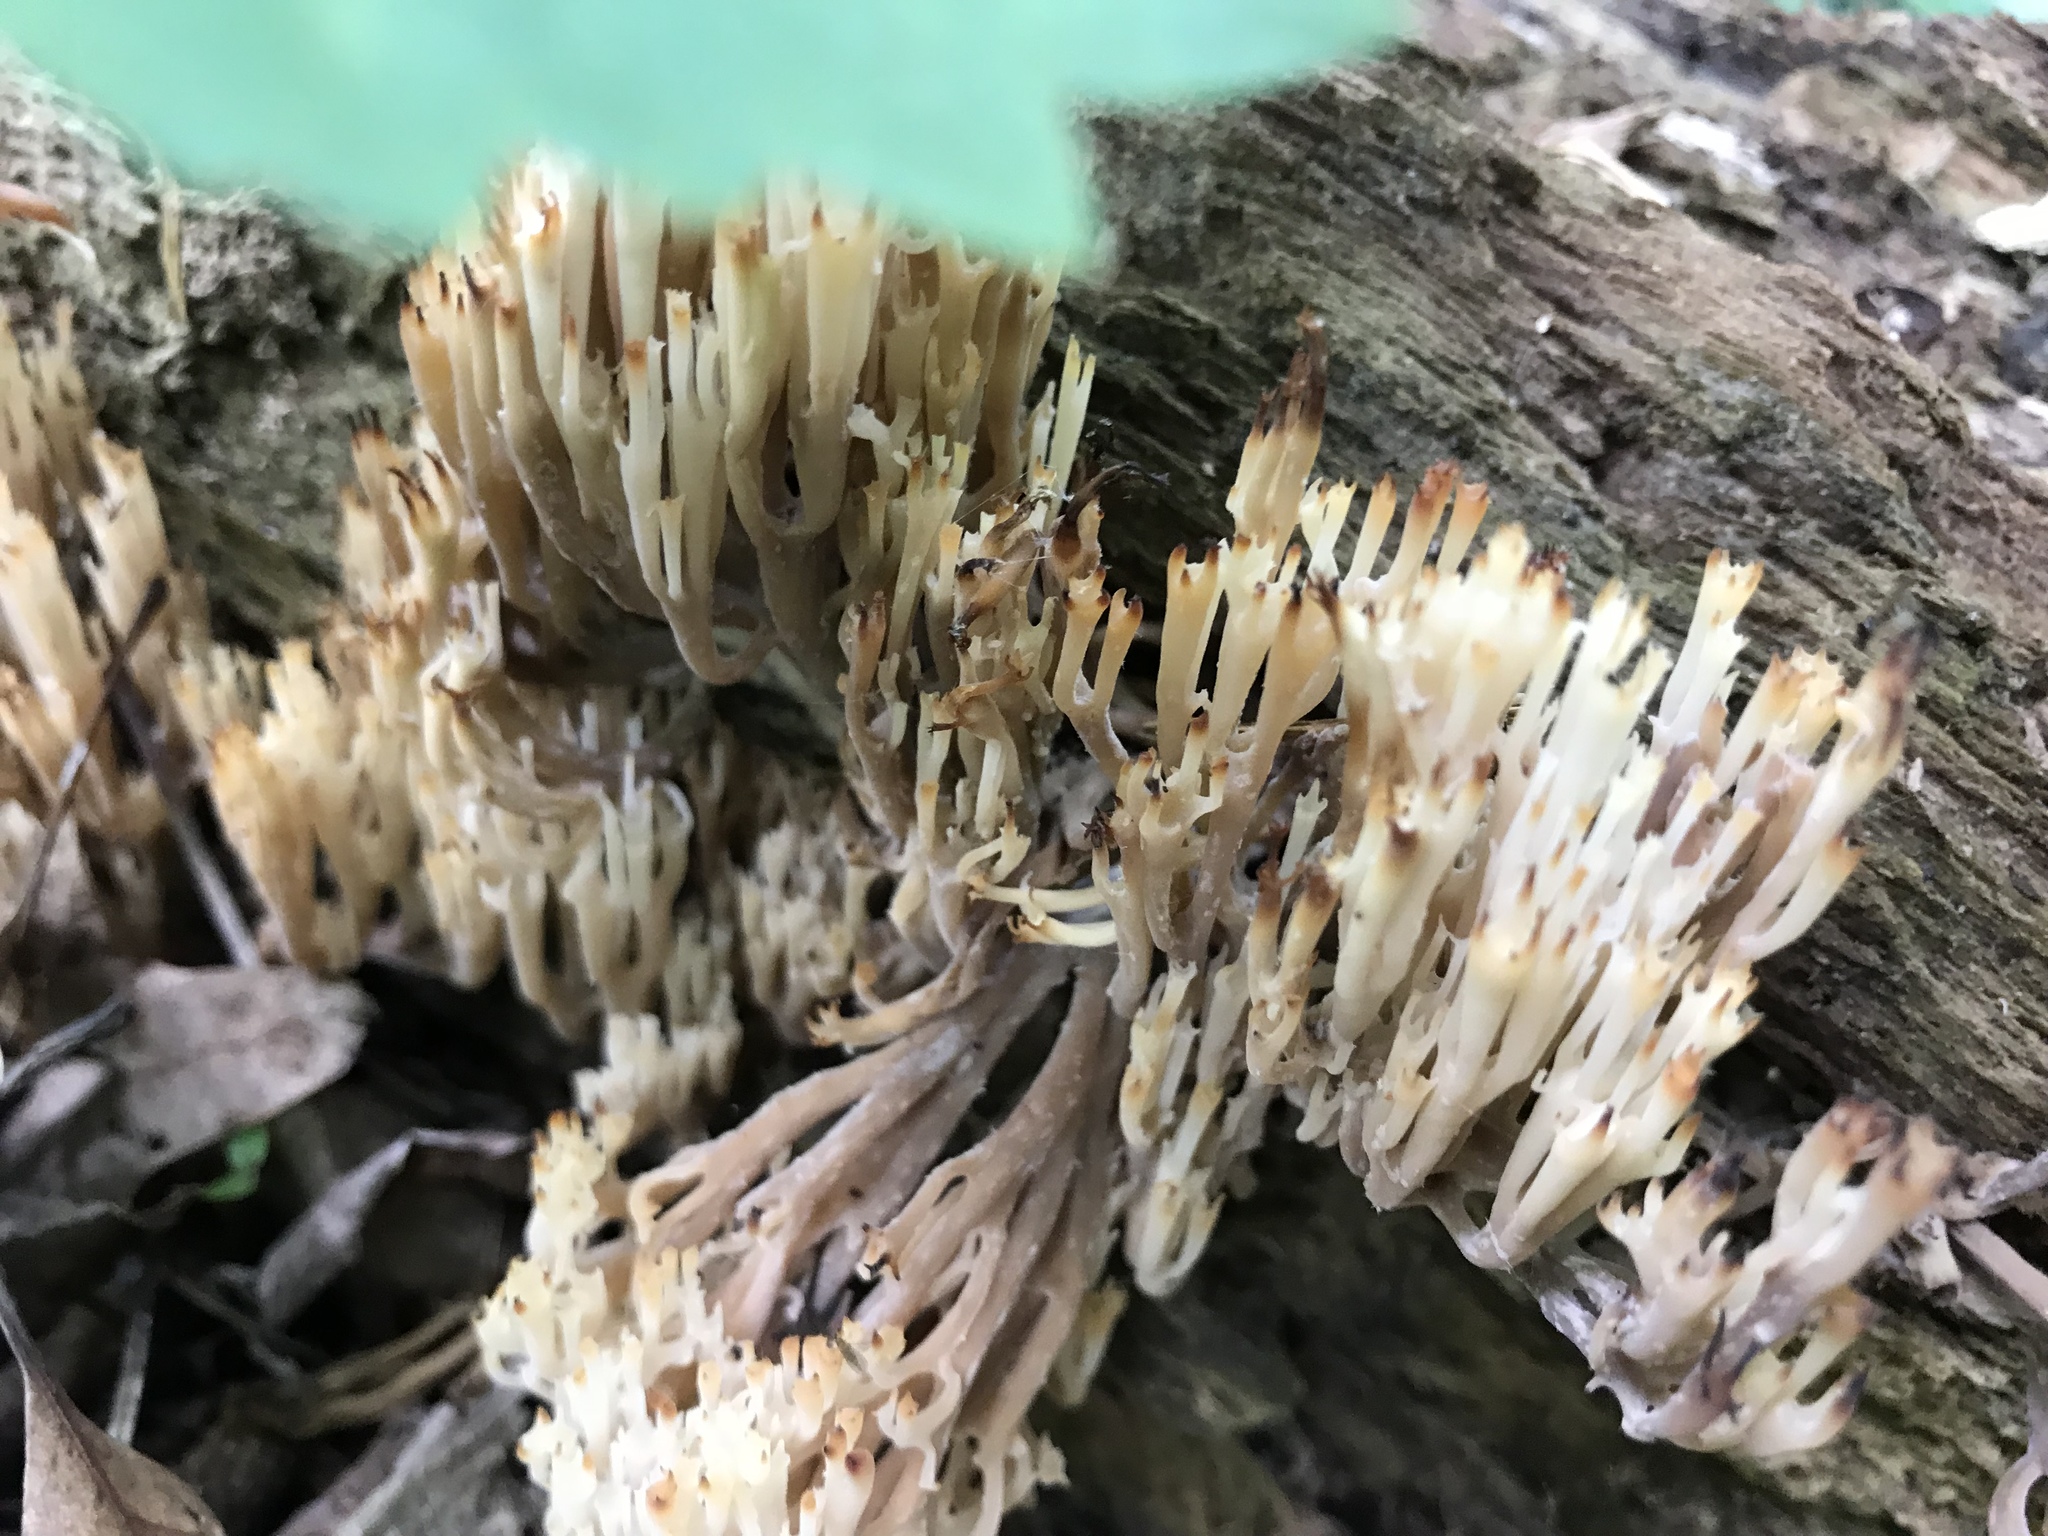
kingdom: Fungi
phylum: Basidiomycota
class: Agaricomycetes
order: Russulales
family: Auriscalpiaceae
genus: Artomyces
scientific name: Artomyces pyxidatus
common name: Crown-tipped coral fungus
